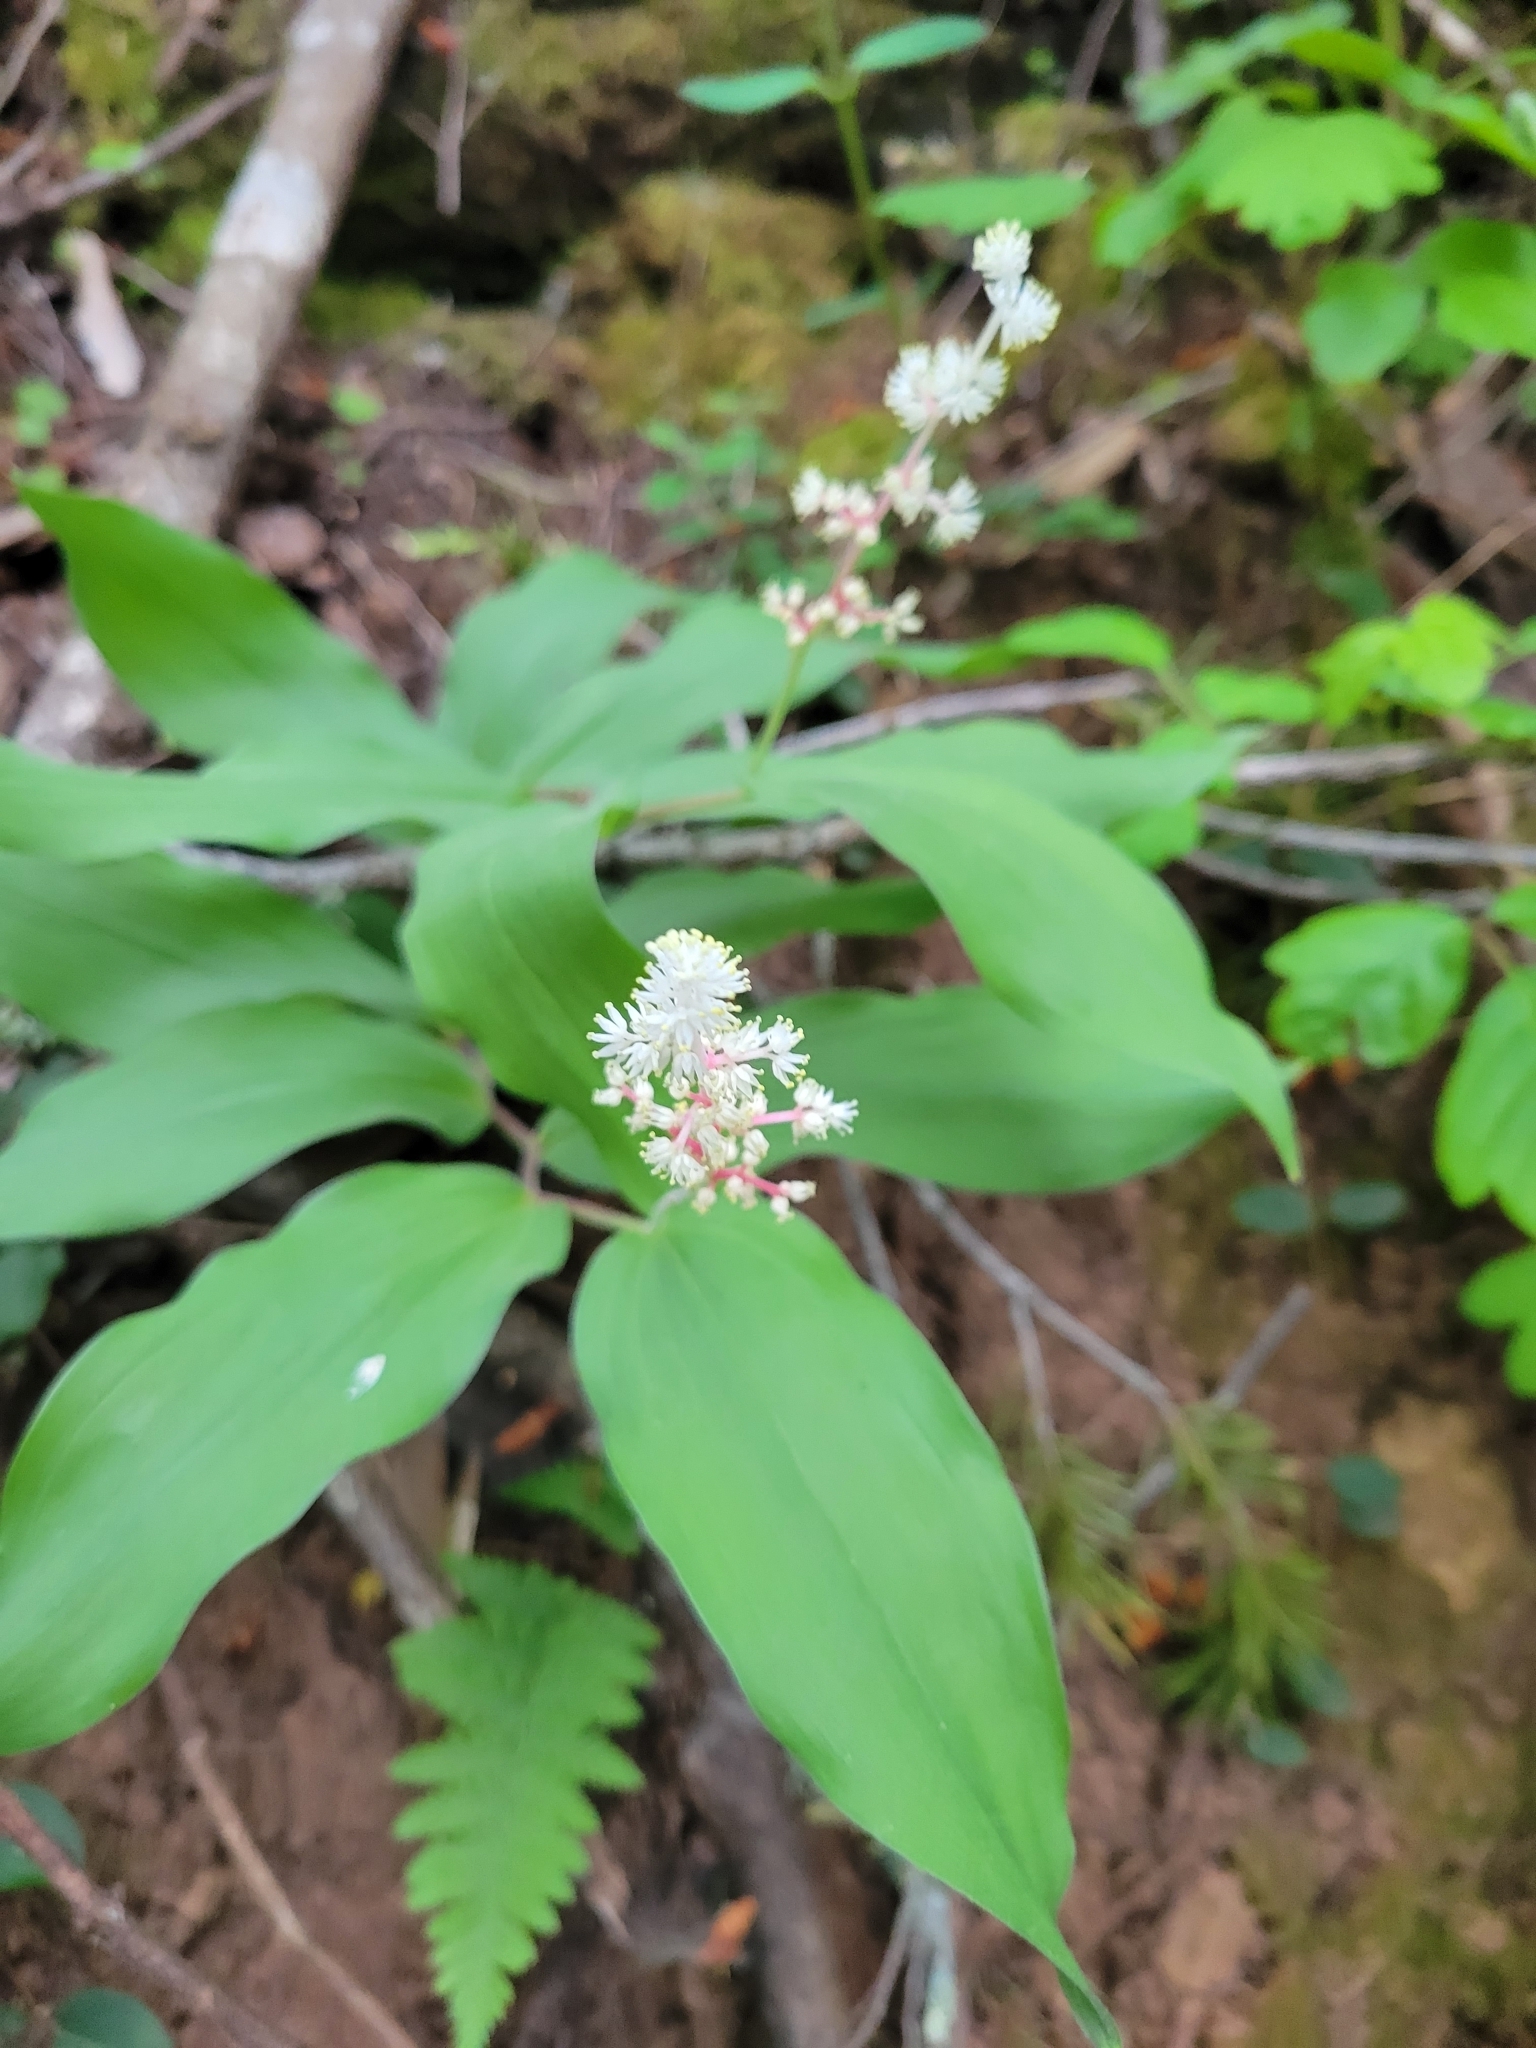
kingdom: Plantae
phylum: Tracheophyta
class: Liliopsida
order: Asparagales
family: Asparagaceae
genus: Maianthemum
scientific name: Maianthemum racemosum
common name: False spikenard
